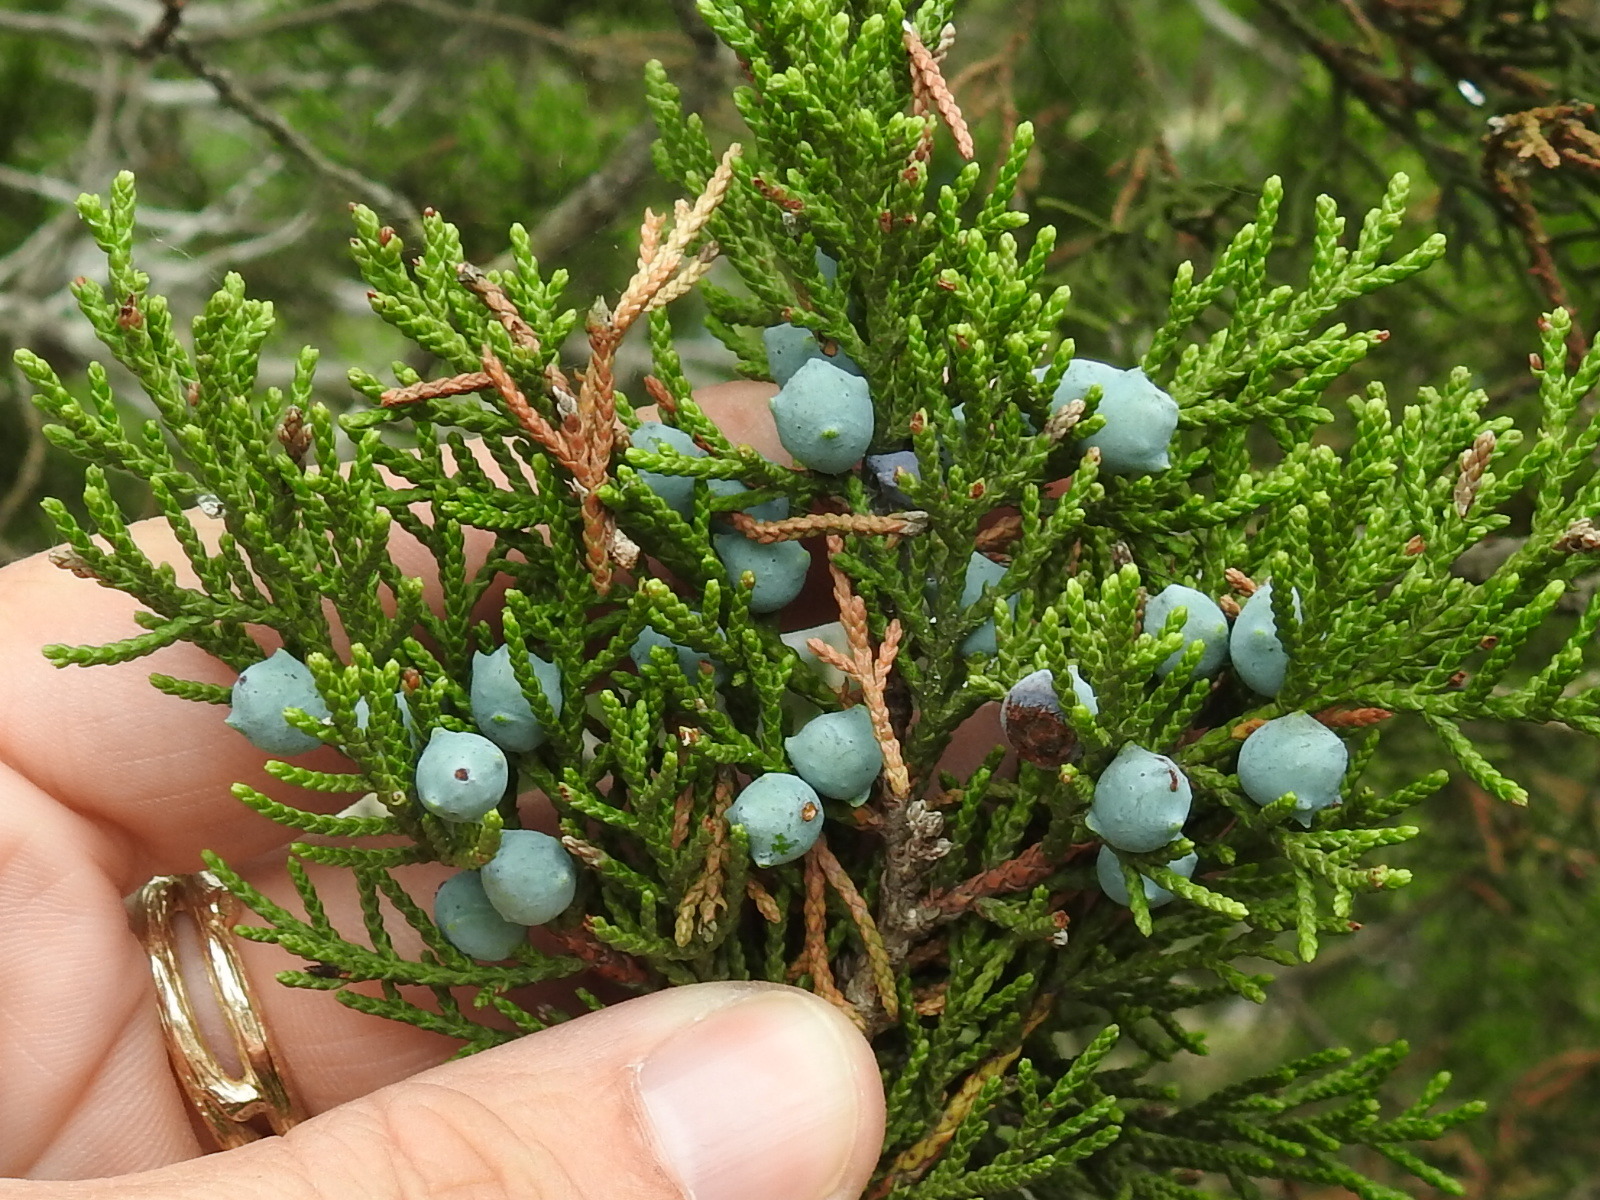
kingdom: Plantae
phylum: Tracheophyta
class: Pinopsida
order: Pinales
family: Cupressaceae
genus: Juniperus
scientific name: Juniperus ashei
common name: Mexican juniper
